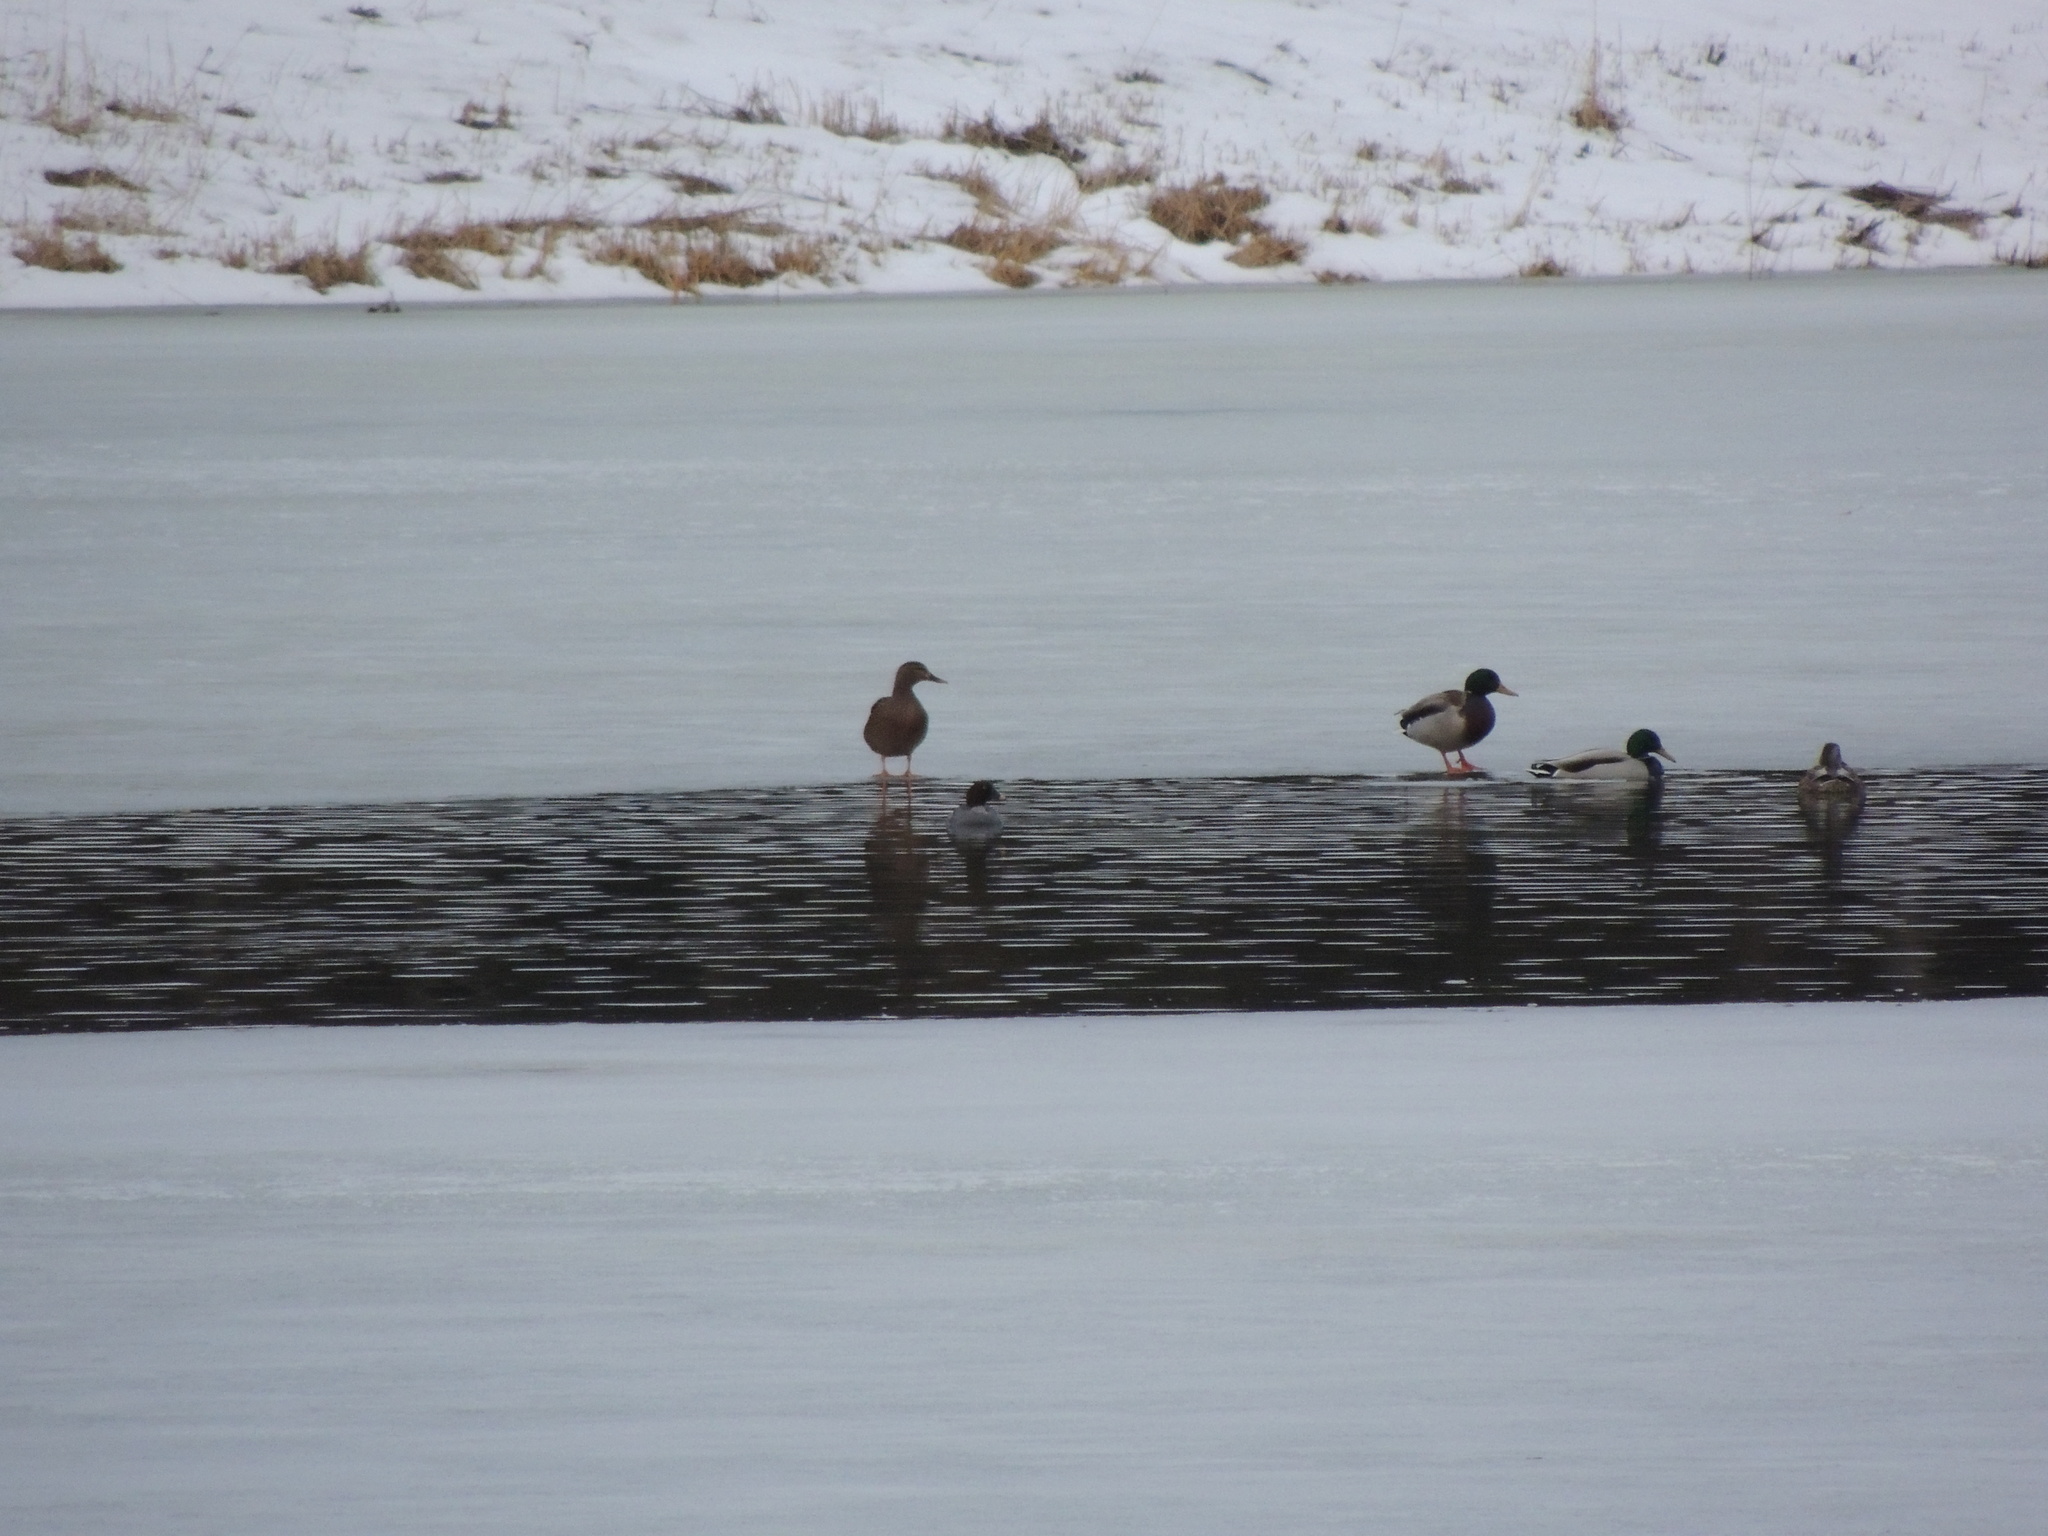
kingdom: Animalia
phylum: Chordata
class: Aves
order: Anseriformes
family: Anatidae
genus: Anas
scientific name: Anas platyrhynchos
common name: Mallard
